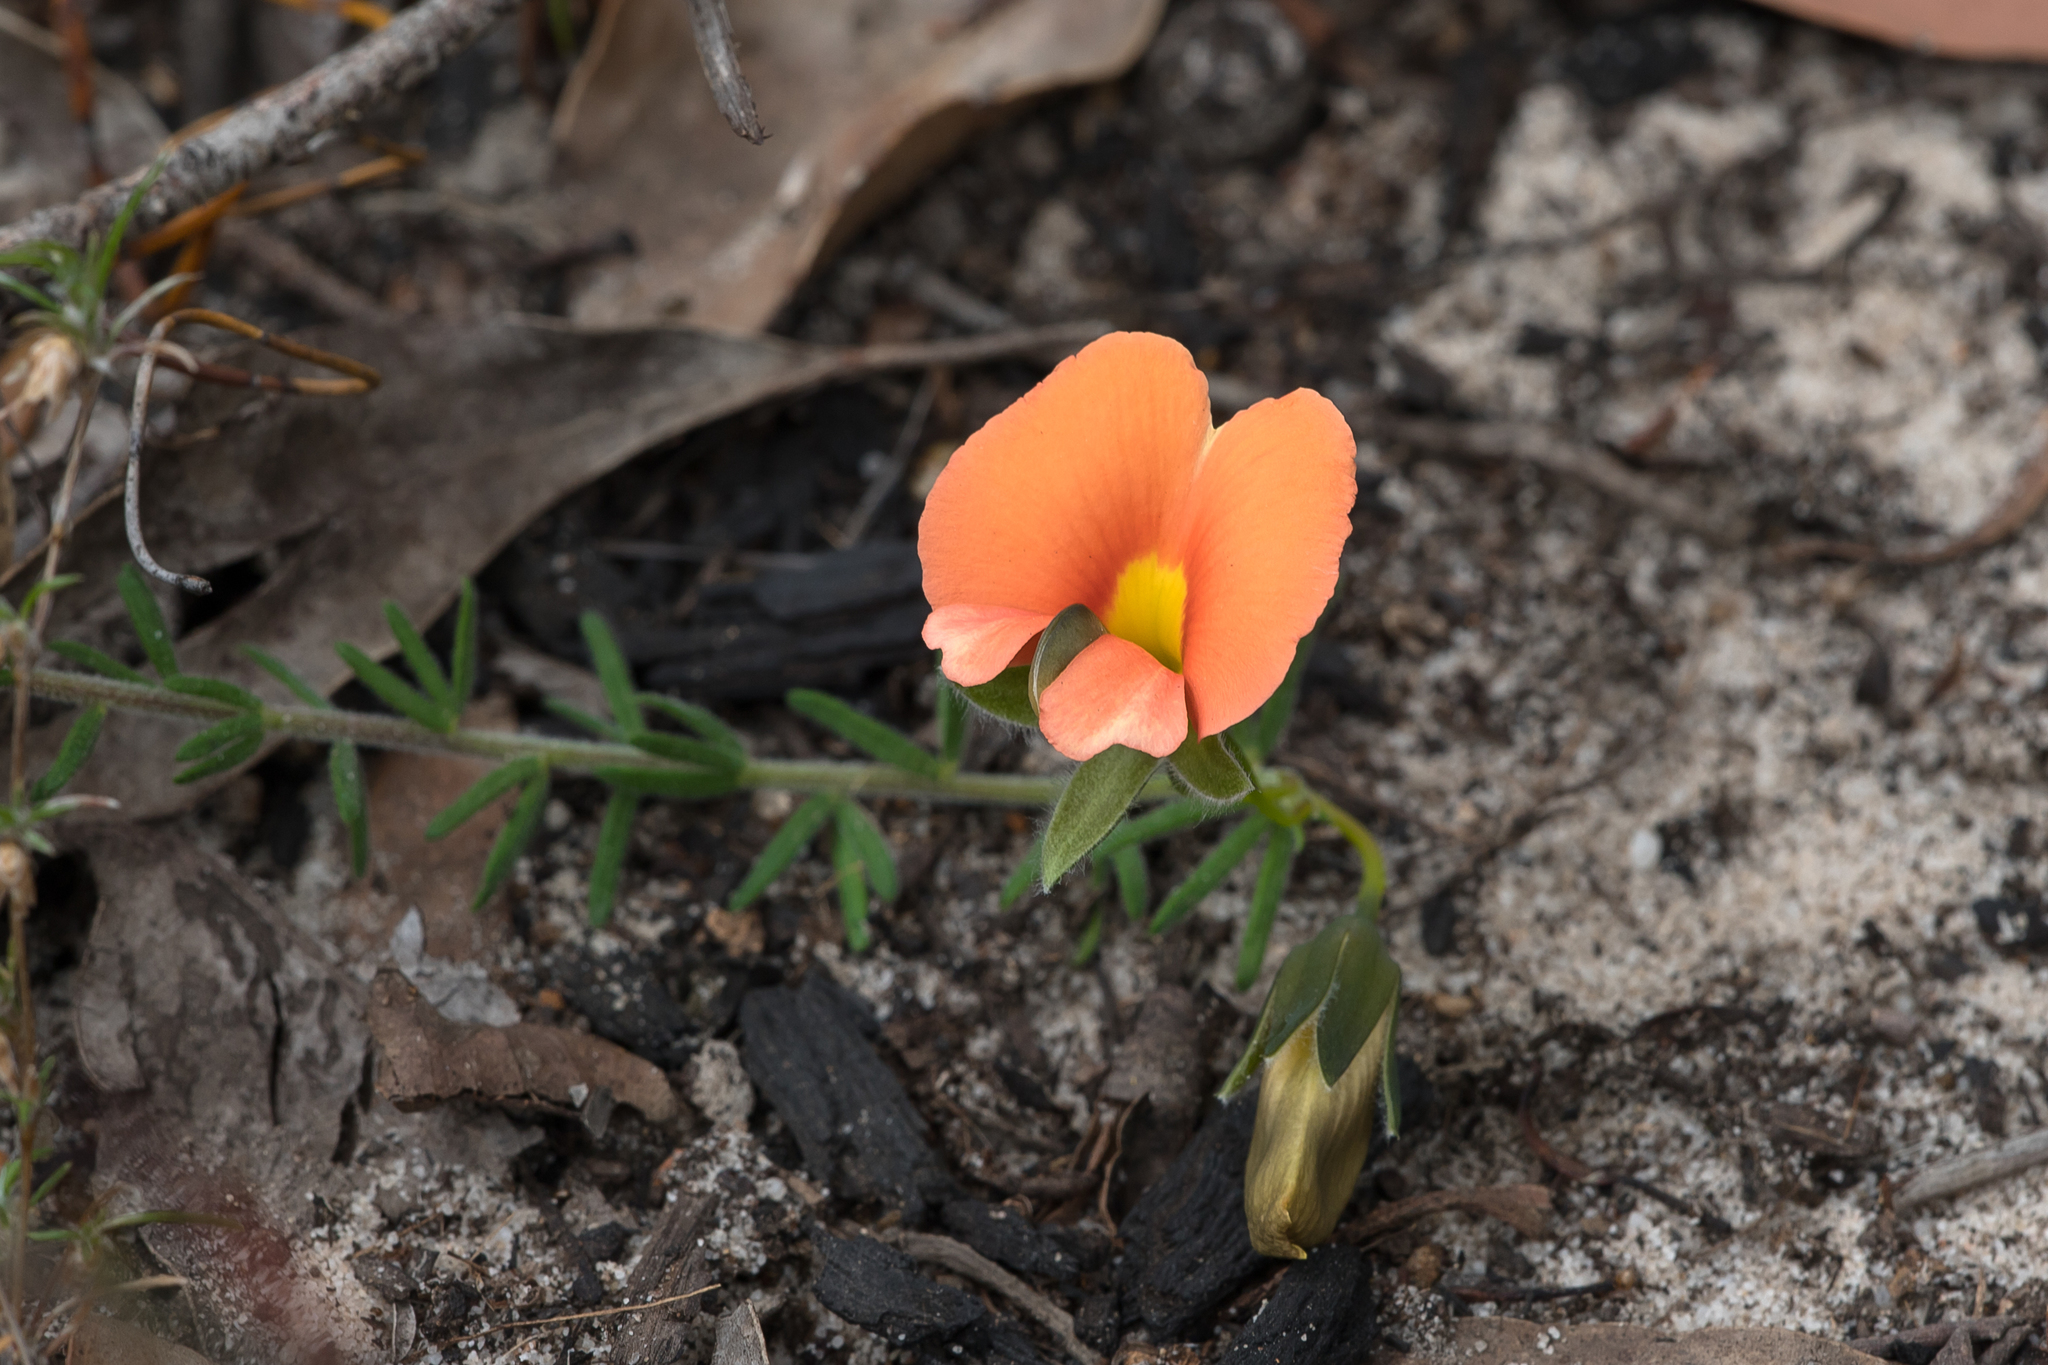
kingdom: Plantae
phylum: Tracheophyta
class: Magnoliopsida
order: Fabales
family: Fabaceae
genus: Gompholobium
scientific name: Gompholobium ecostatum
